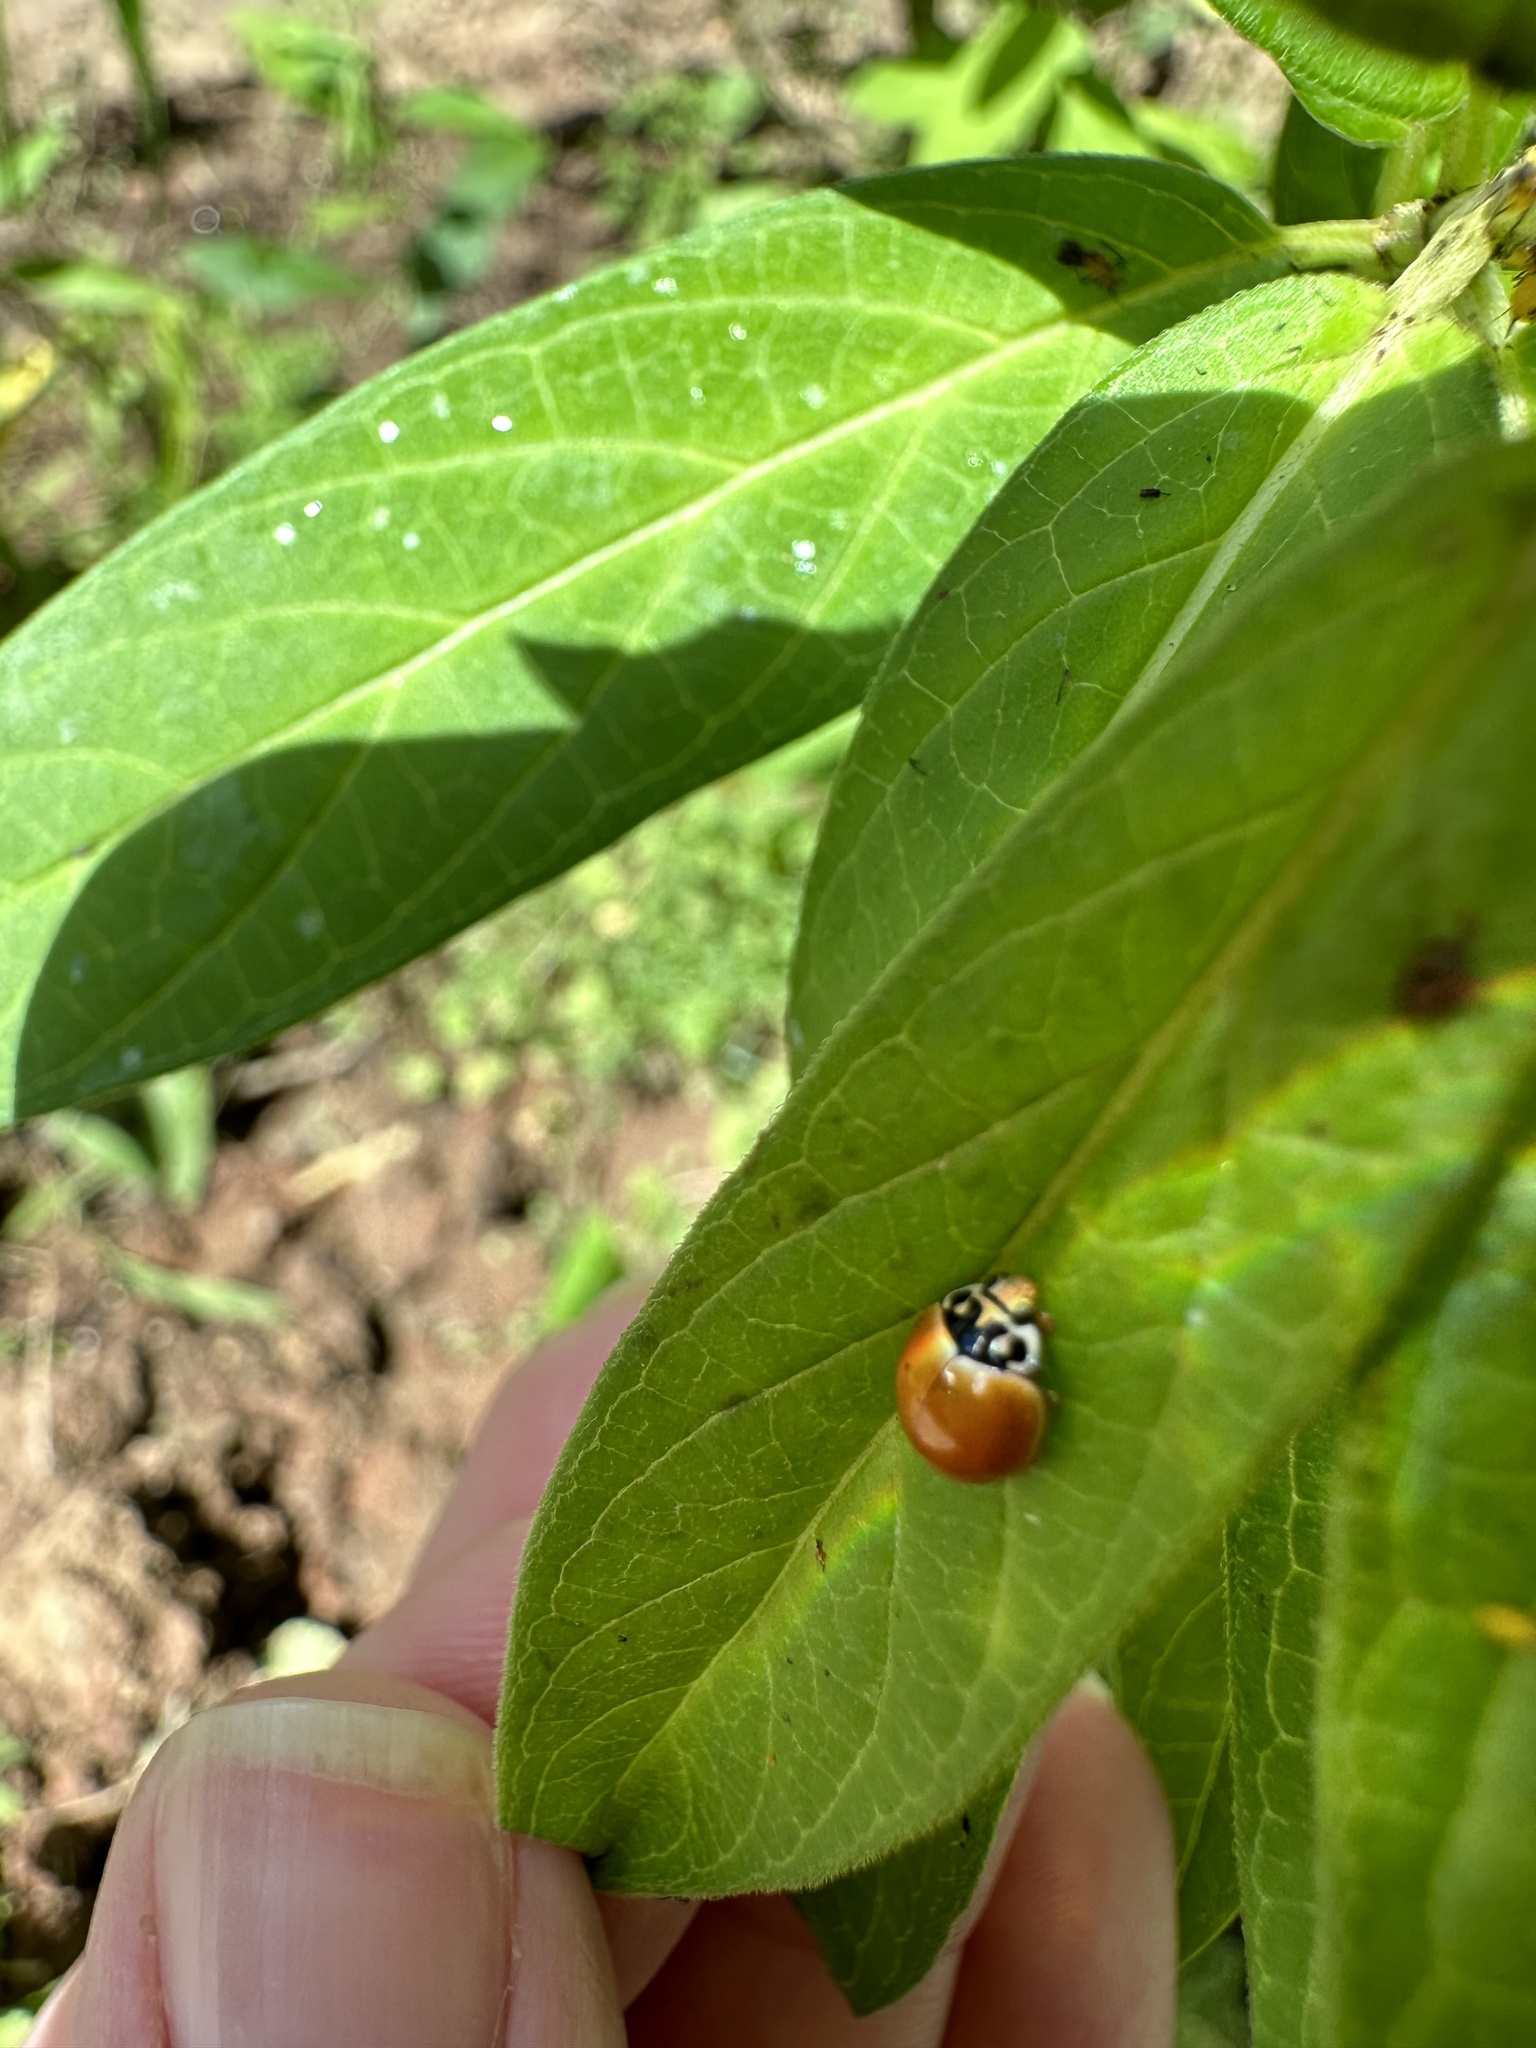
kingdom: Animalia
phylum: Arthropoda
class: Insecta
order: Coleoptera
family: Coccinellidae
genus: Cycloneda
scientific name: Cycloneda munda
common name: Polished lady beetle
